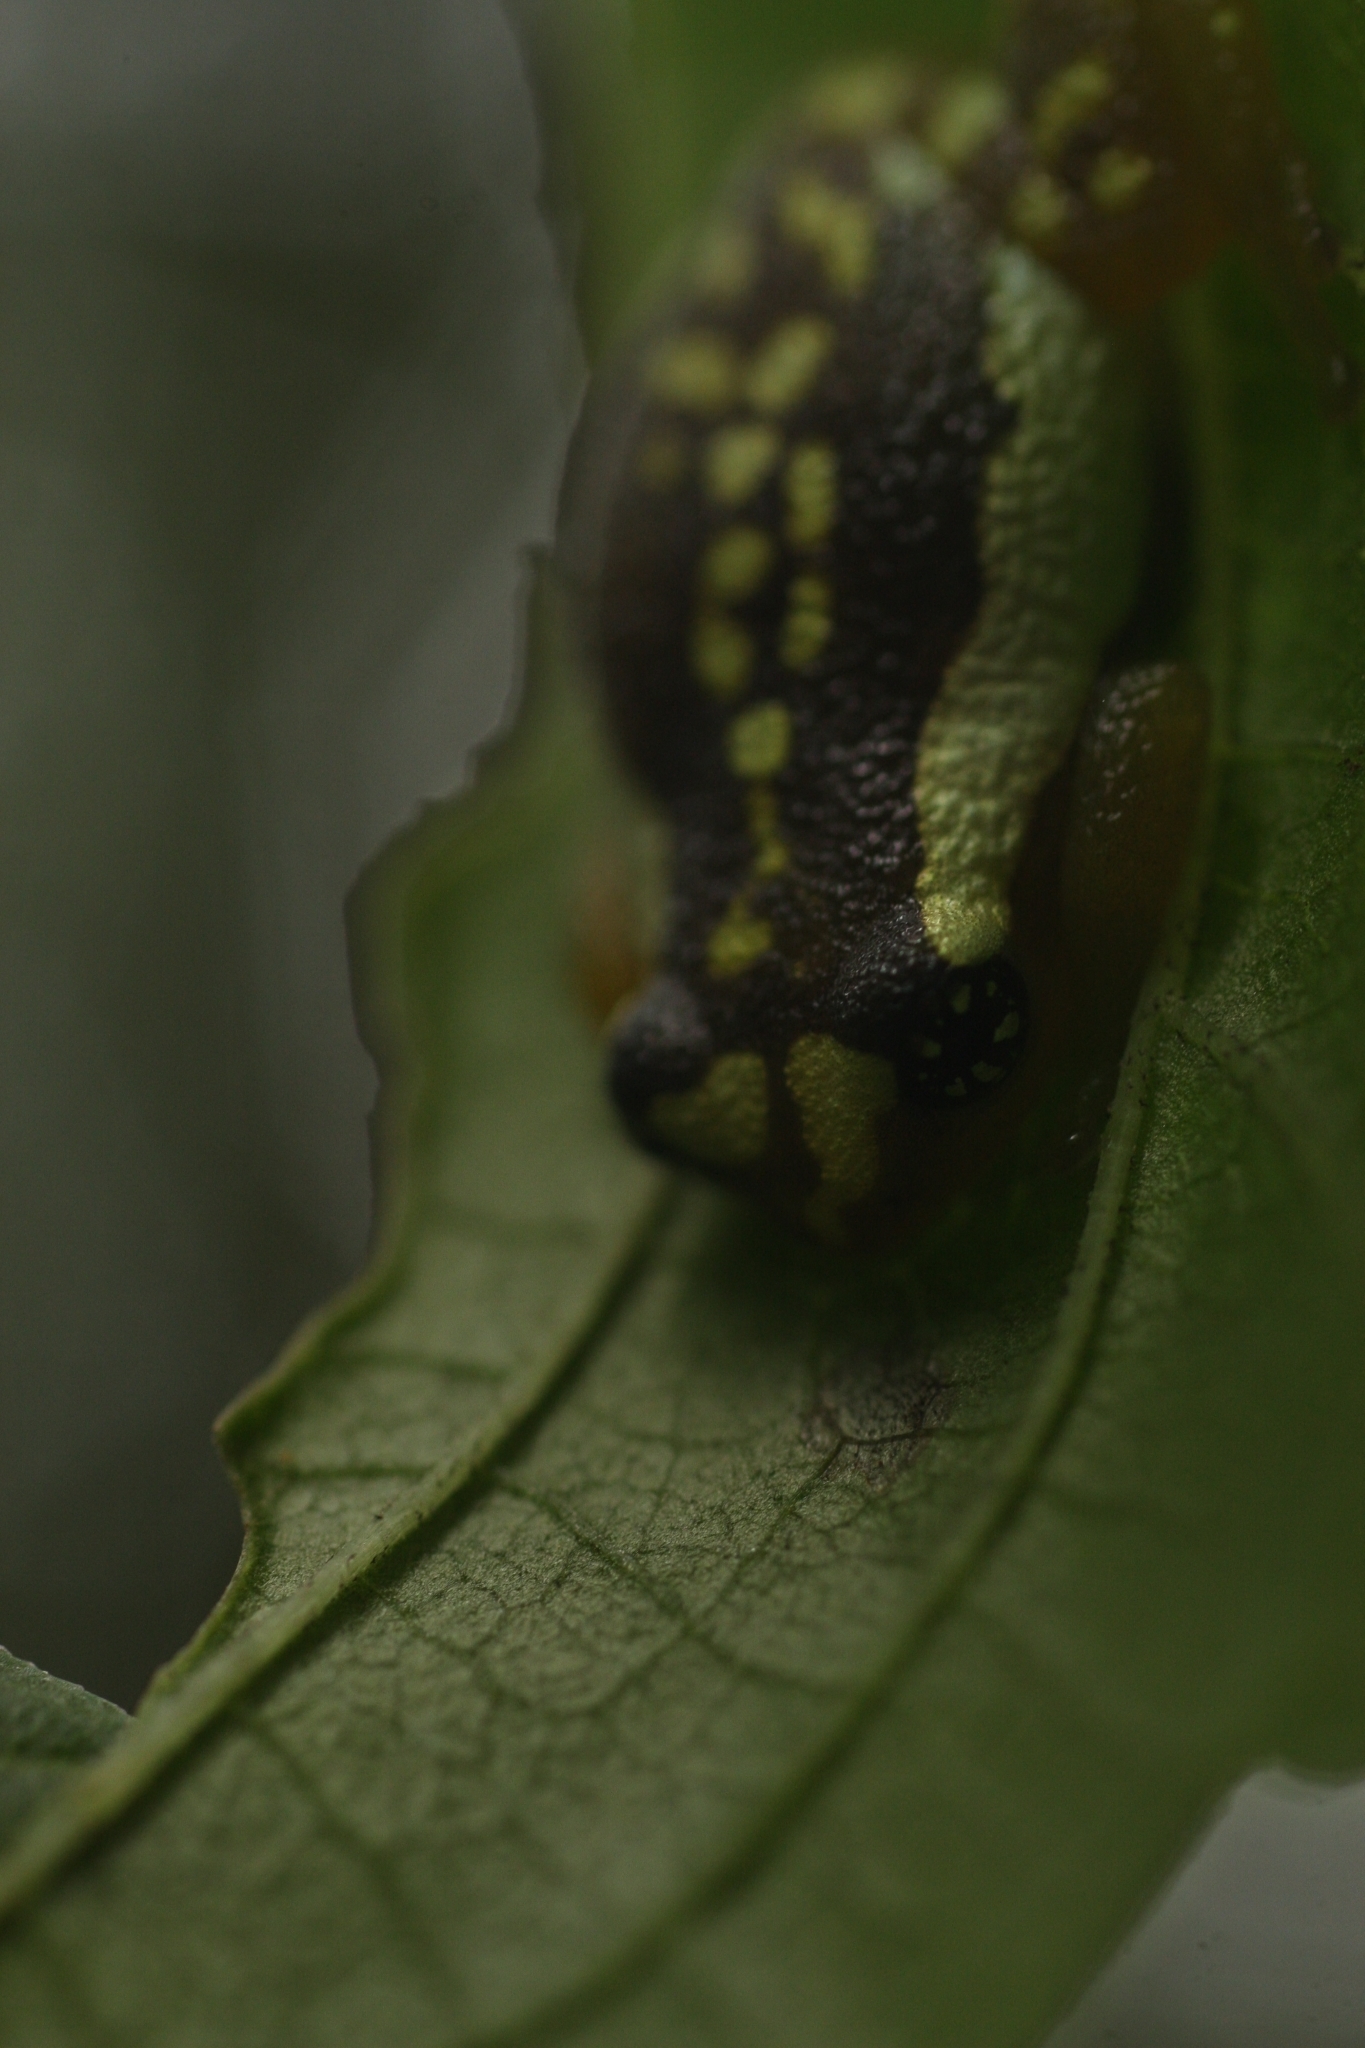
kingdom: Animalia
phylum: Chordata
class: Amphibia
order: Anura
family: Rhacophoridae
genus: Raorchestes
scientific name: Raorchestes ochlandrae
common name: Ochlandrae reed frog
